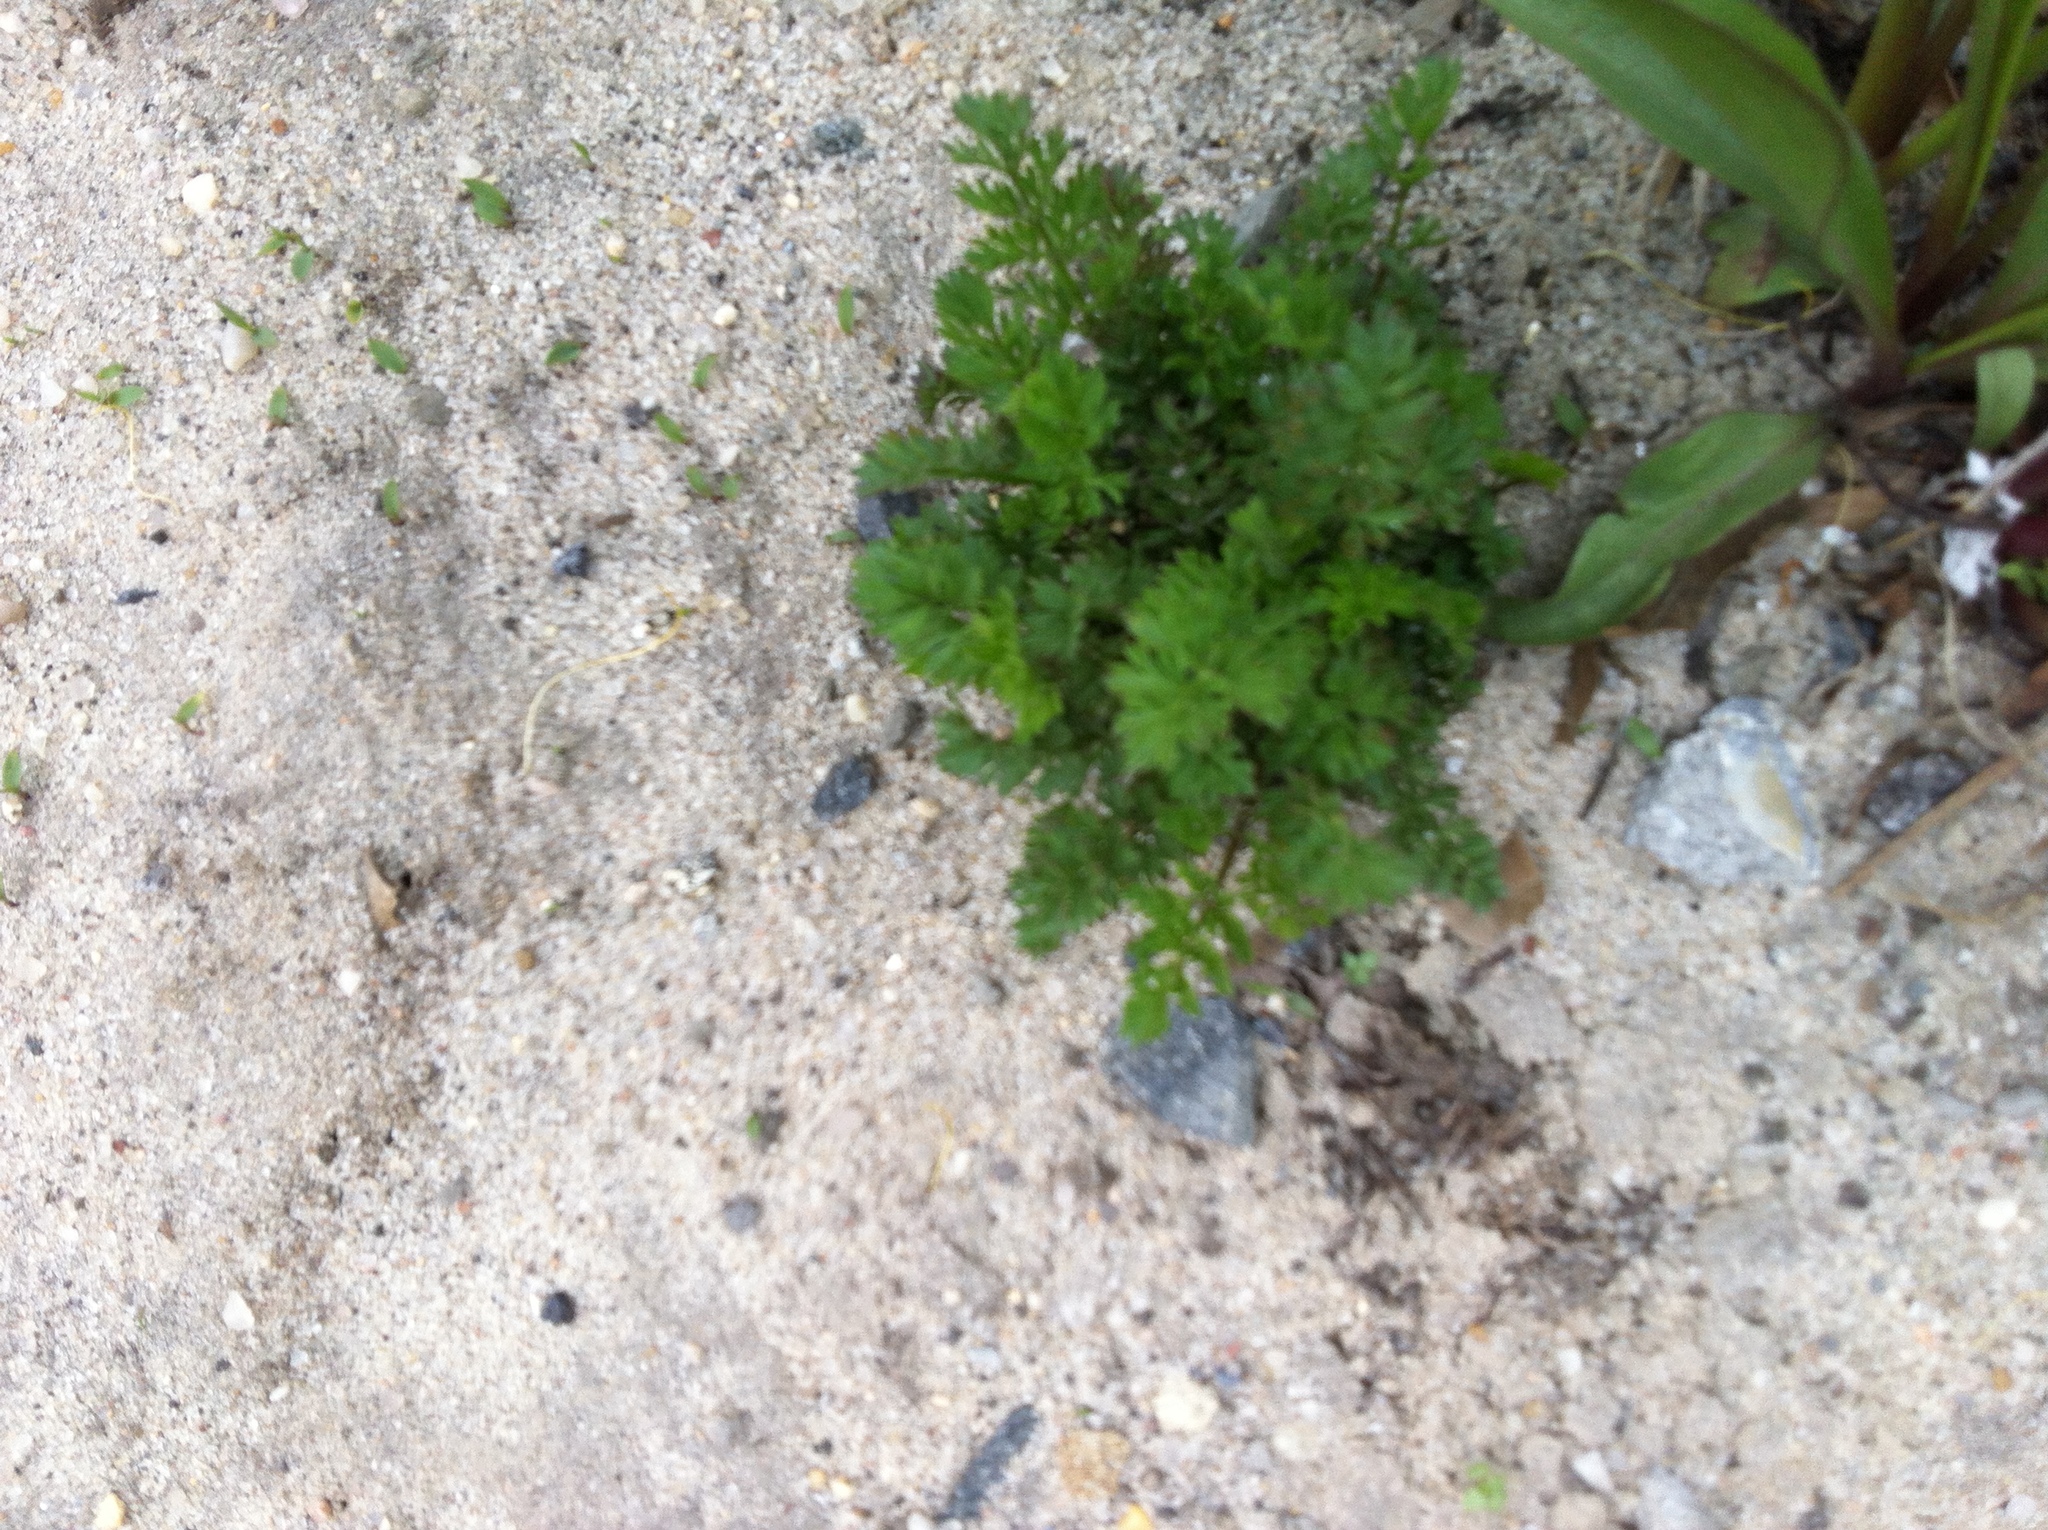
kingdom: Plantae
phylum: Tracheophyta
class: Magnoliopsida
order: Asterales
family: Asteraceae
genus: Achillea
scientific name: Achillea millefolium
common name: Yarrow
